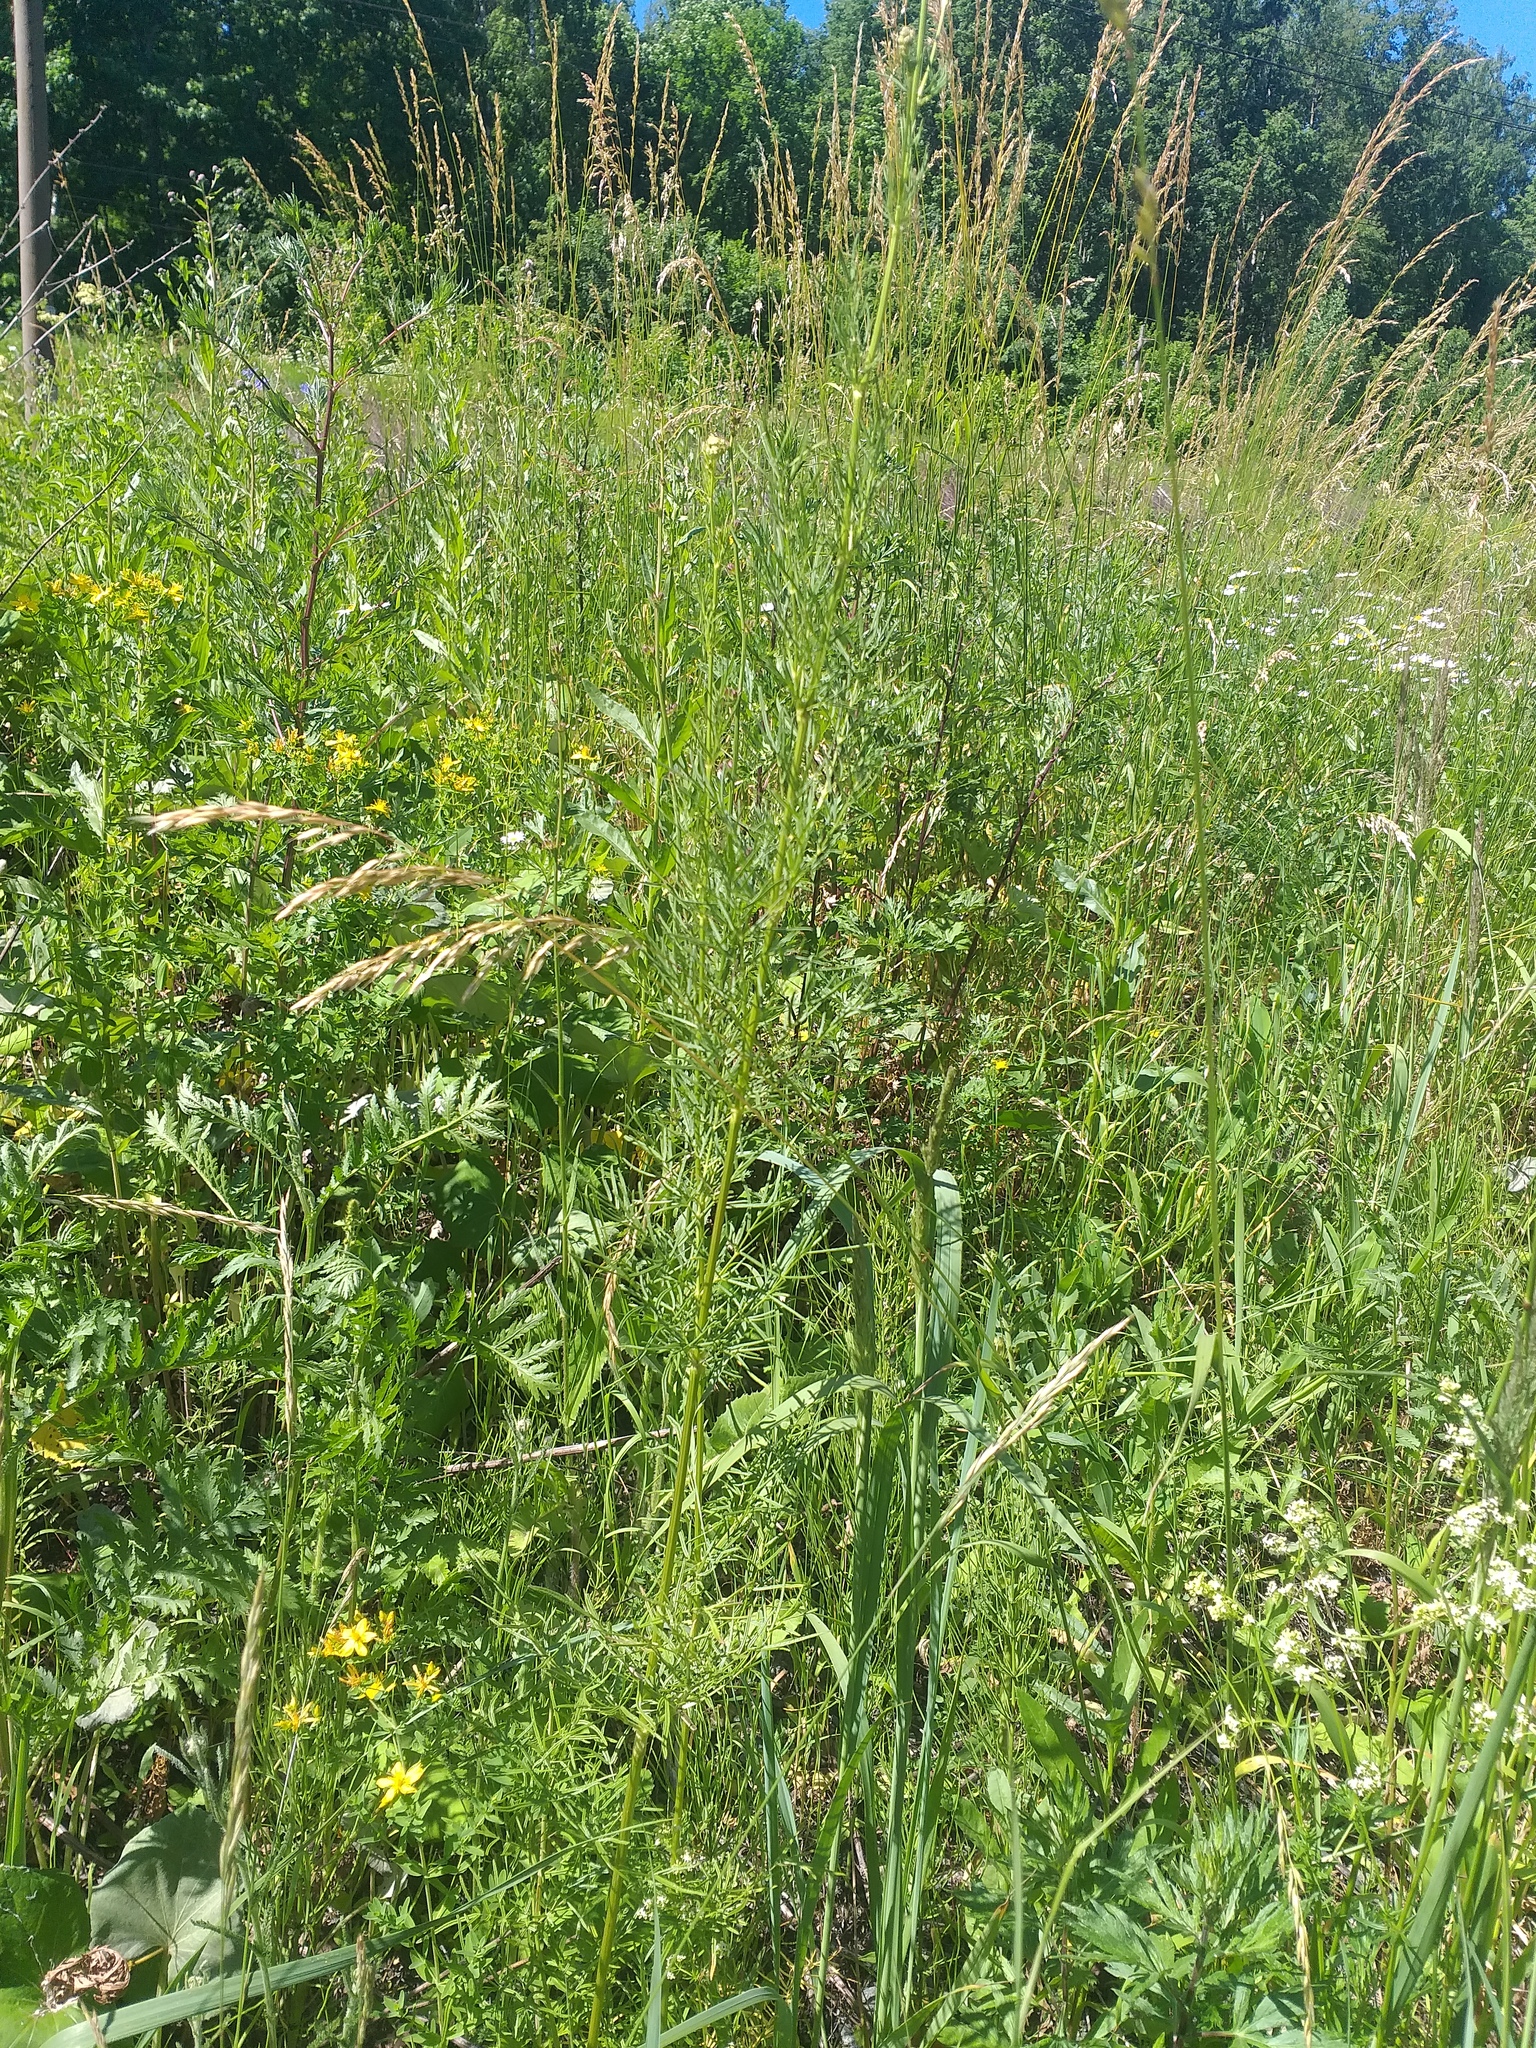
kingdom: Plantae
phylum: Tracheophyta
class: Magnoliopsida
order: Ranunculales
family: Ranunculaceae
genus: Thalictrum
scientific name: Thalictrum lucidum
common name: Shining meadow-rue
